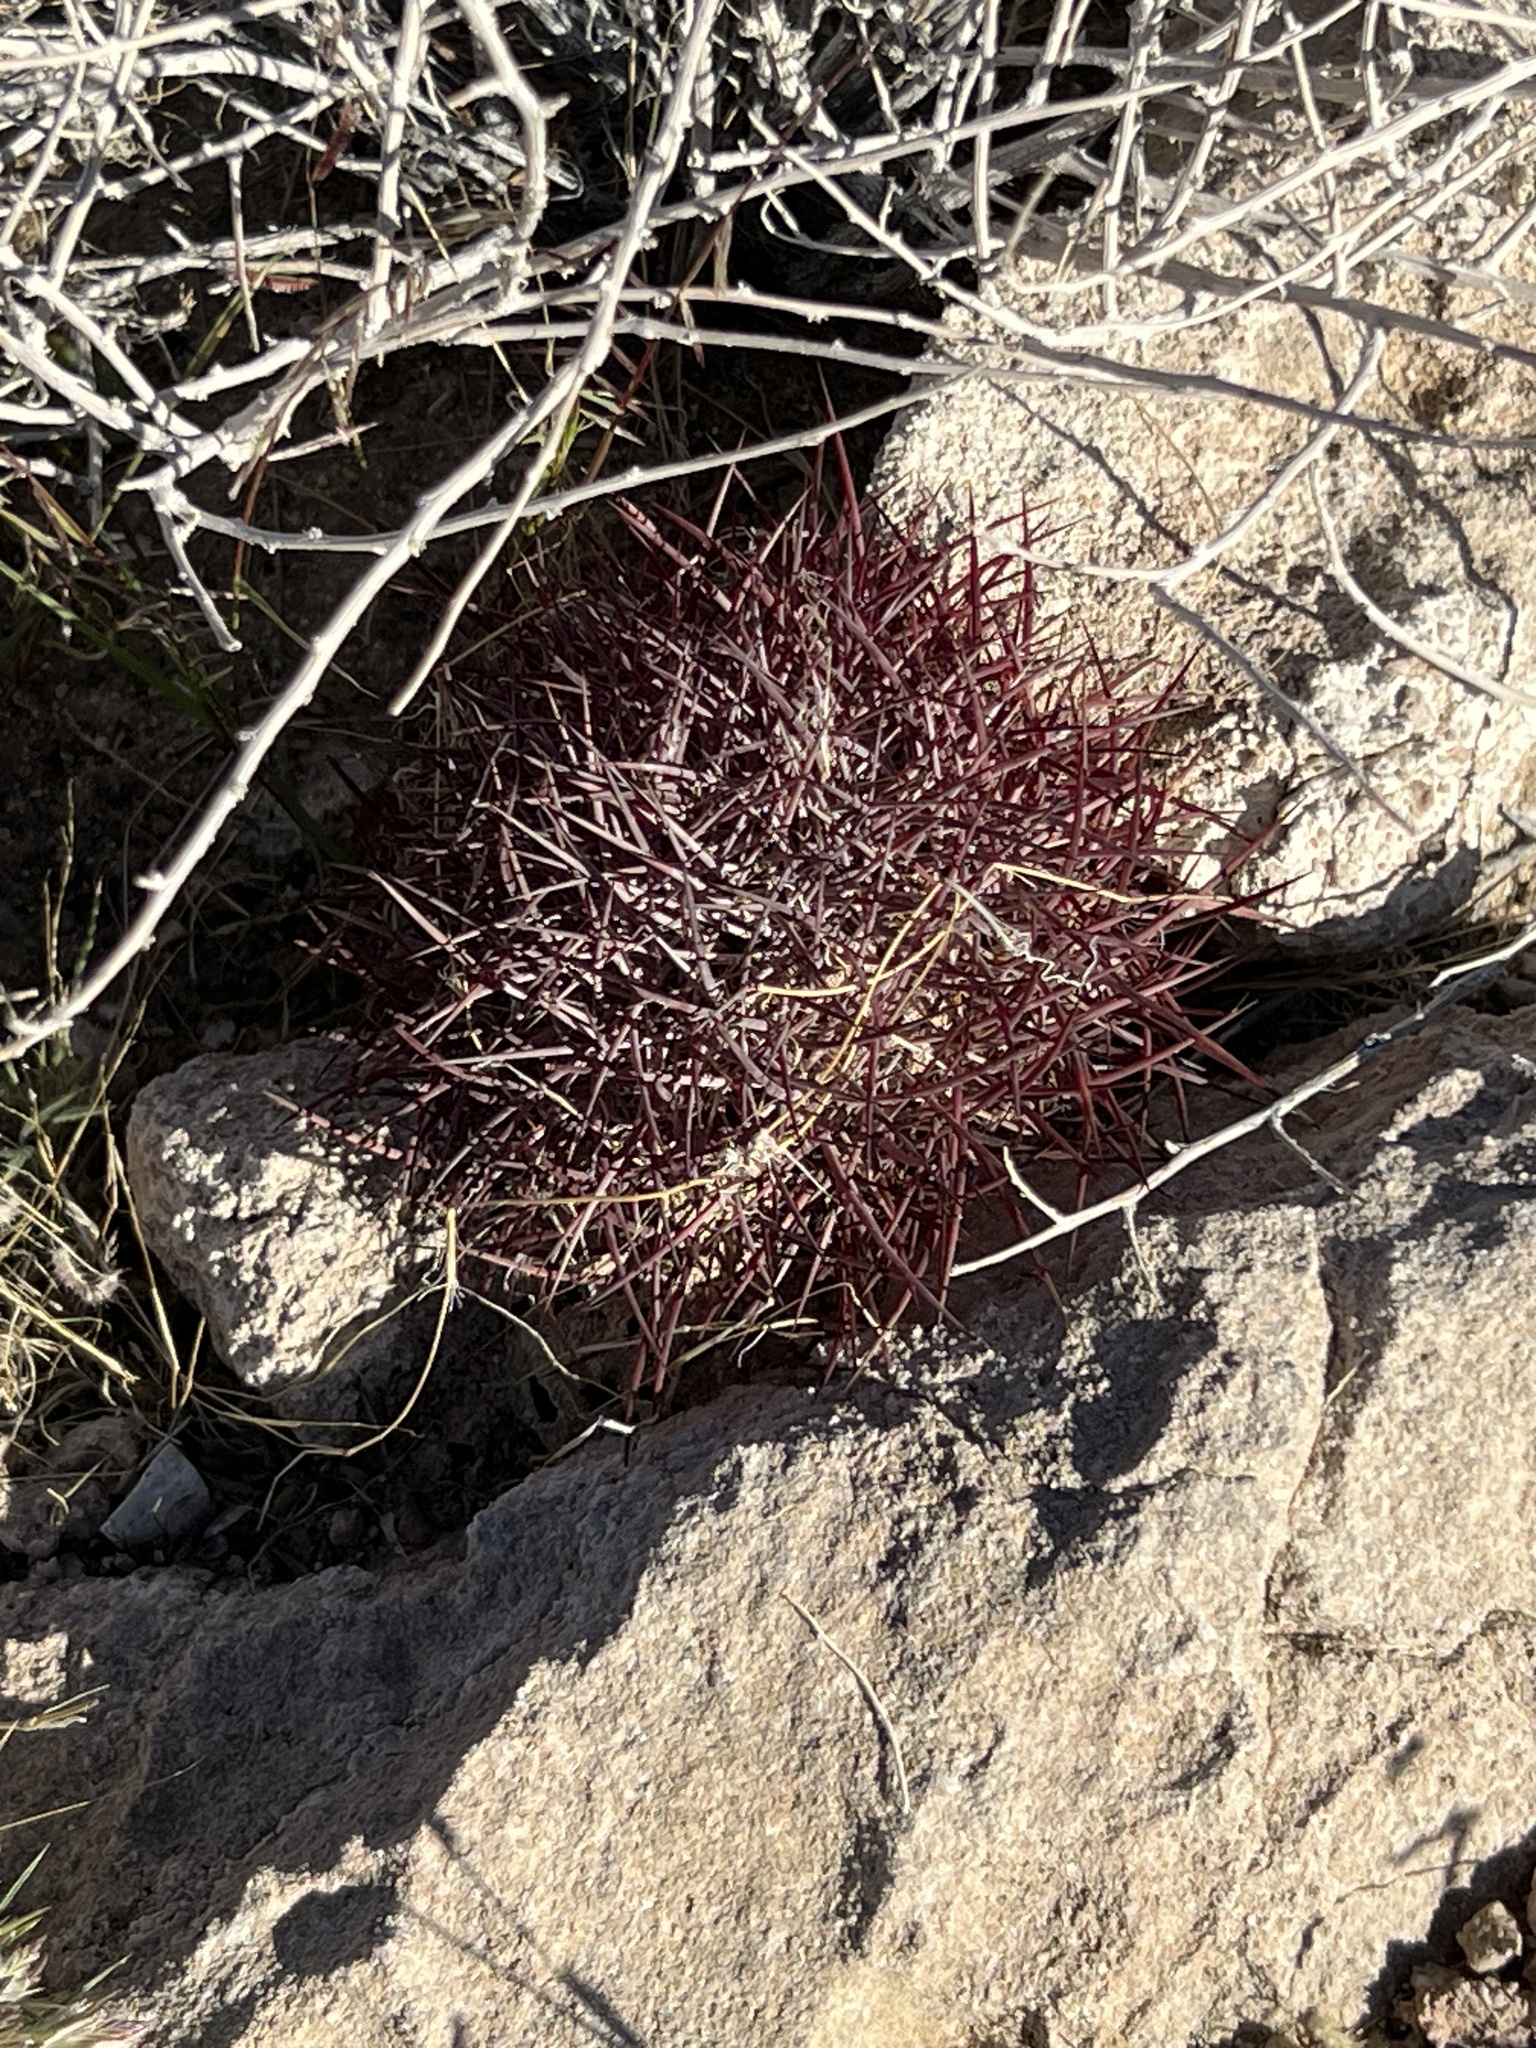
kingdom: Plantae
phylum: Tracheophyta
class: Magnoliopsida
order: Caryophyllales
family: Cactaceae
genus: Sclerocactus
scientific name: Sclerocactus johnsonii
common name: Eight-spine fishhook cactus
